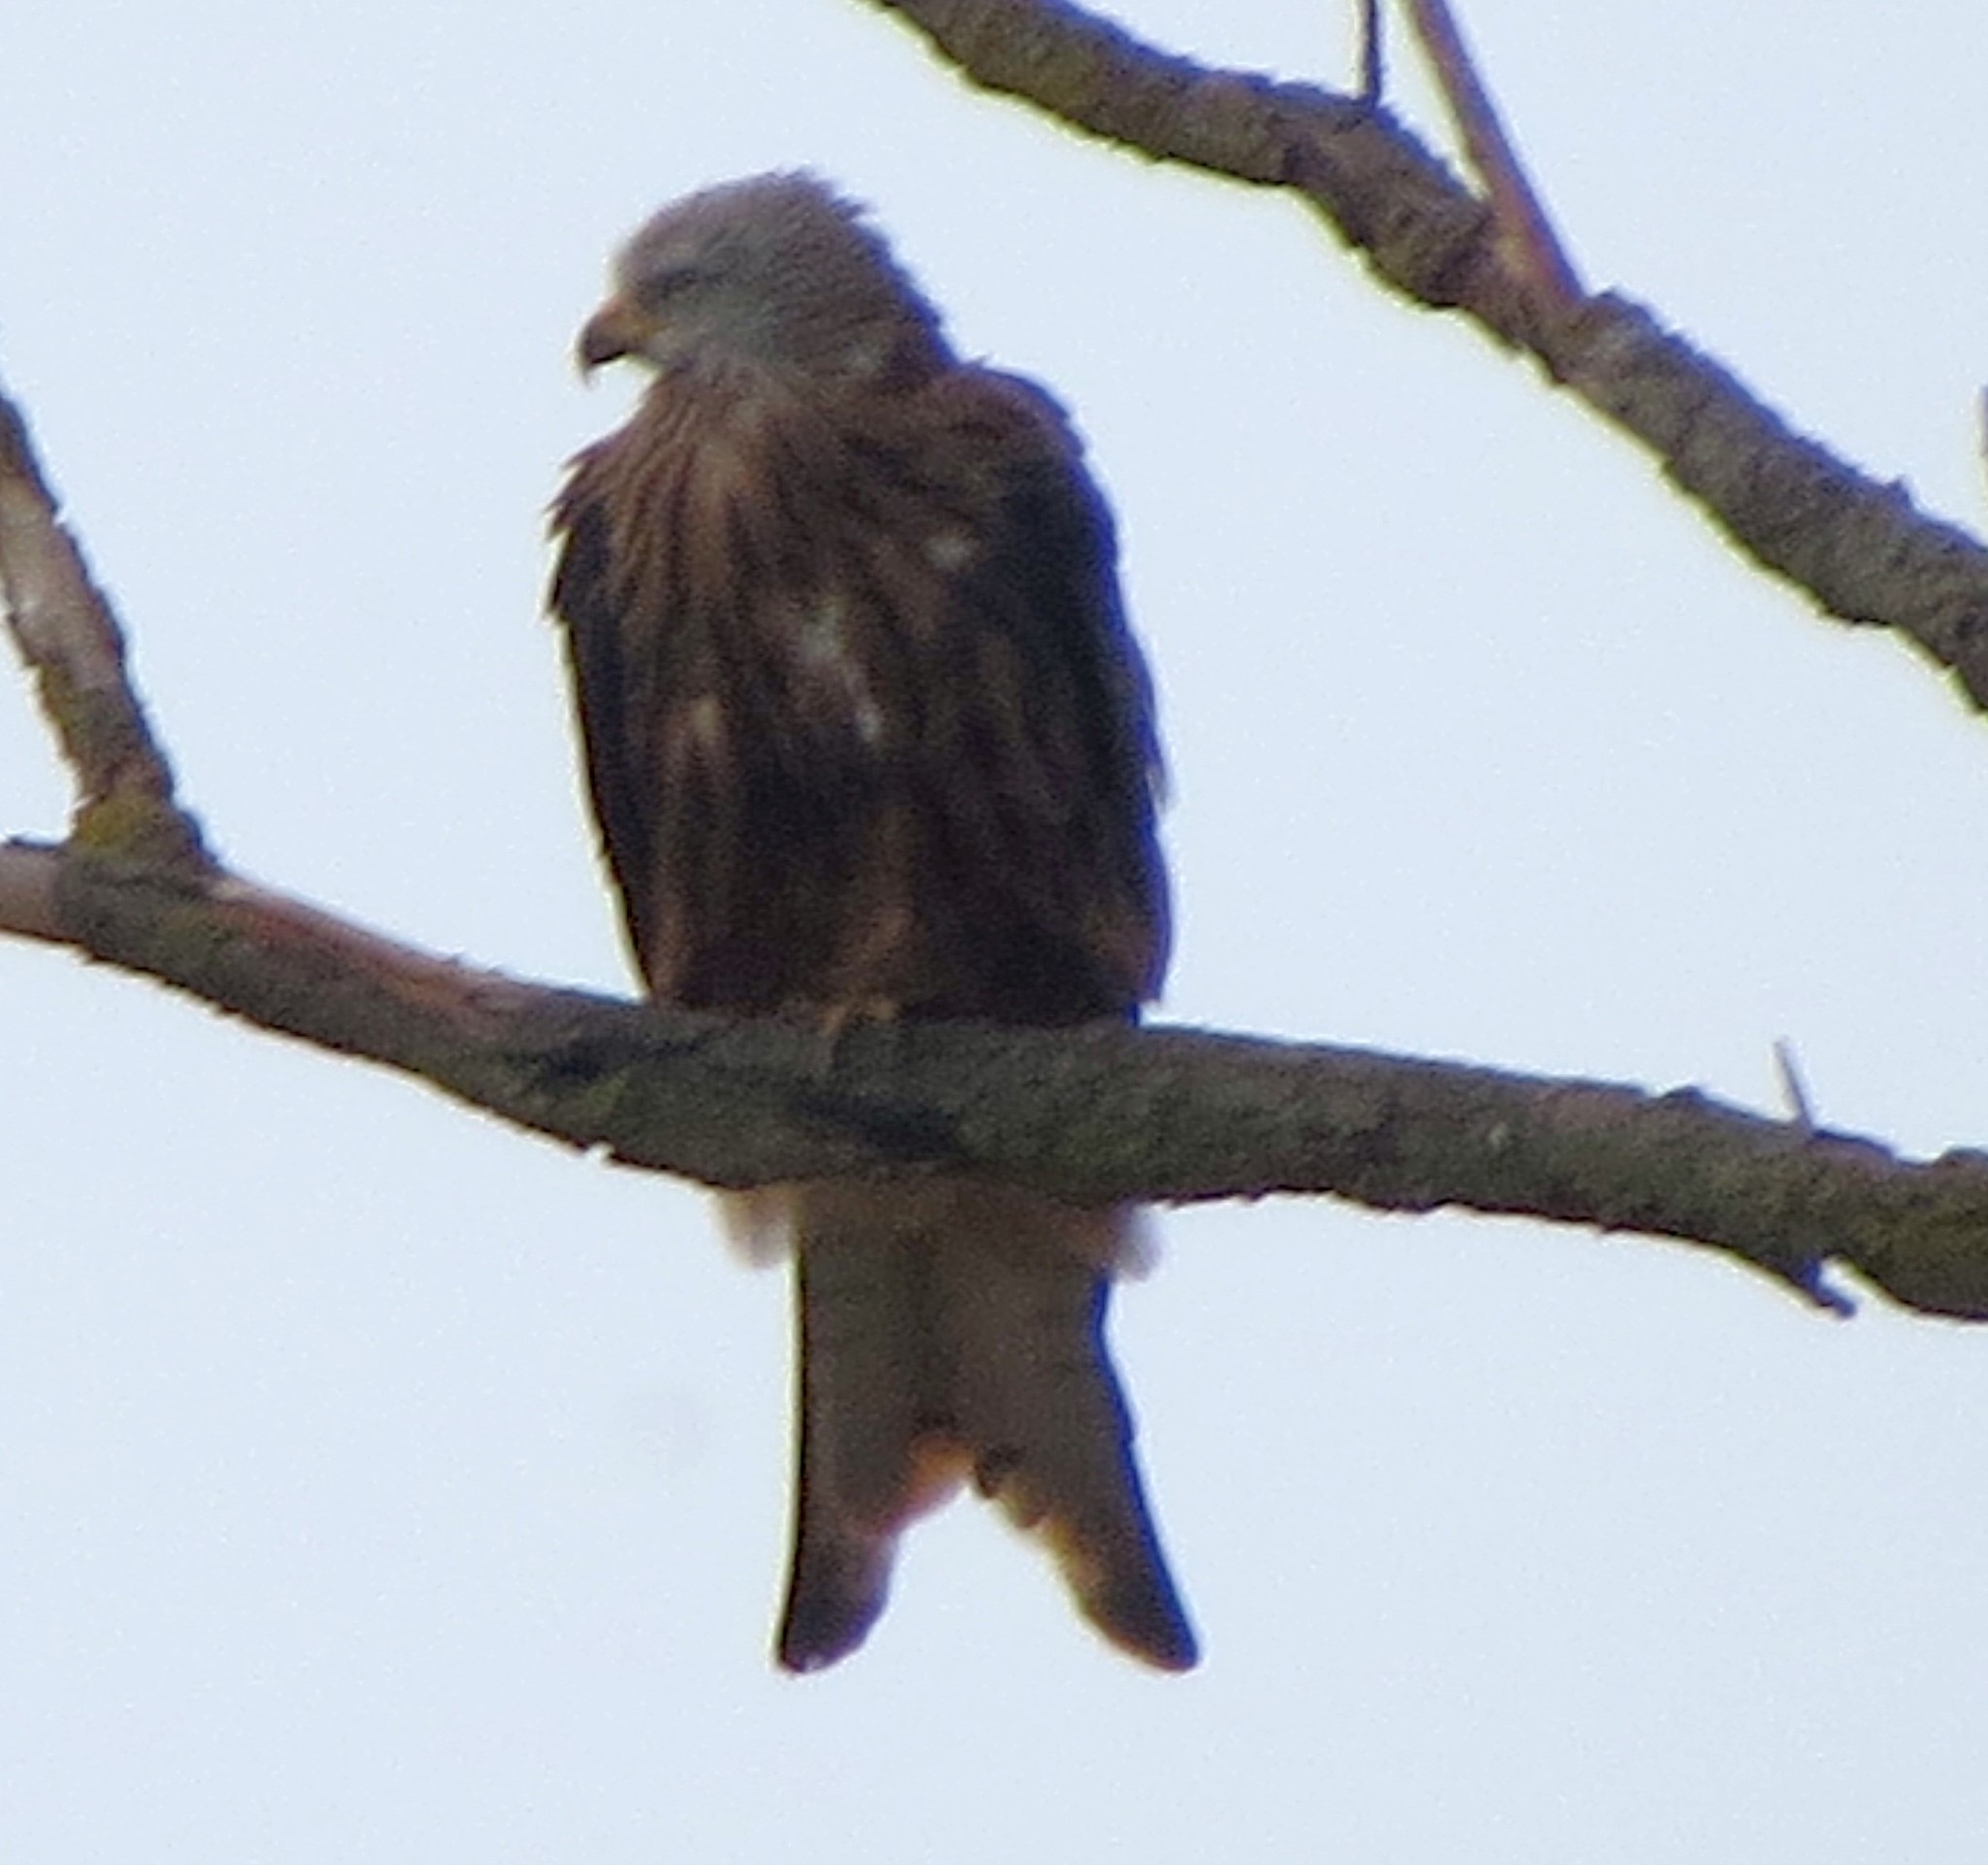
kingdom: Animalia
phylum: Chordata
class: Aves
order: Accipitriformes
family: Accipitridae
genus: Milvus
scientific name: Milvus milvus
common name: Red kite
